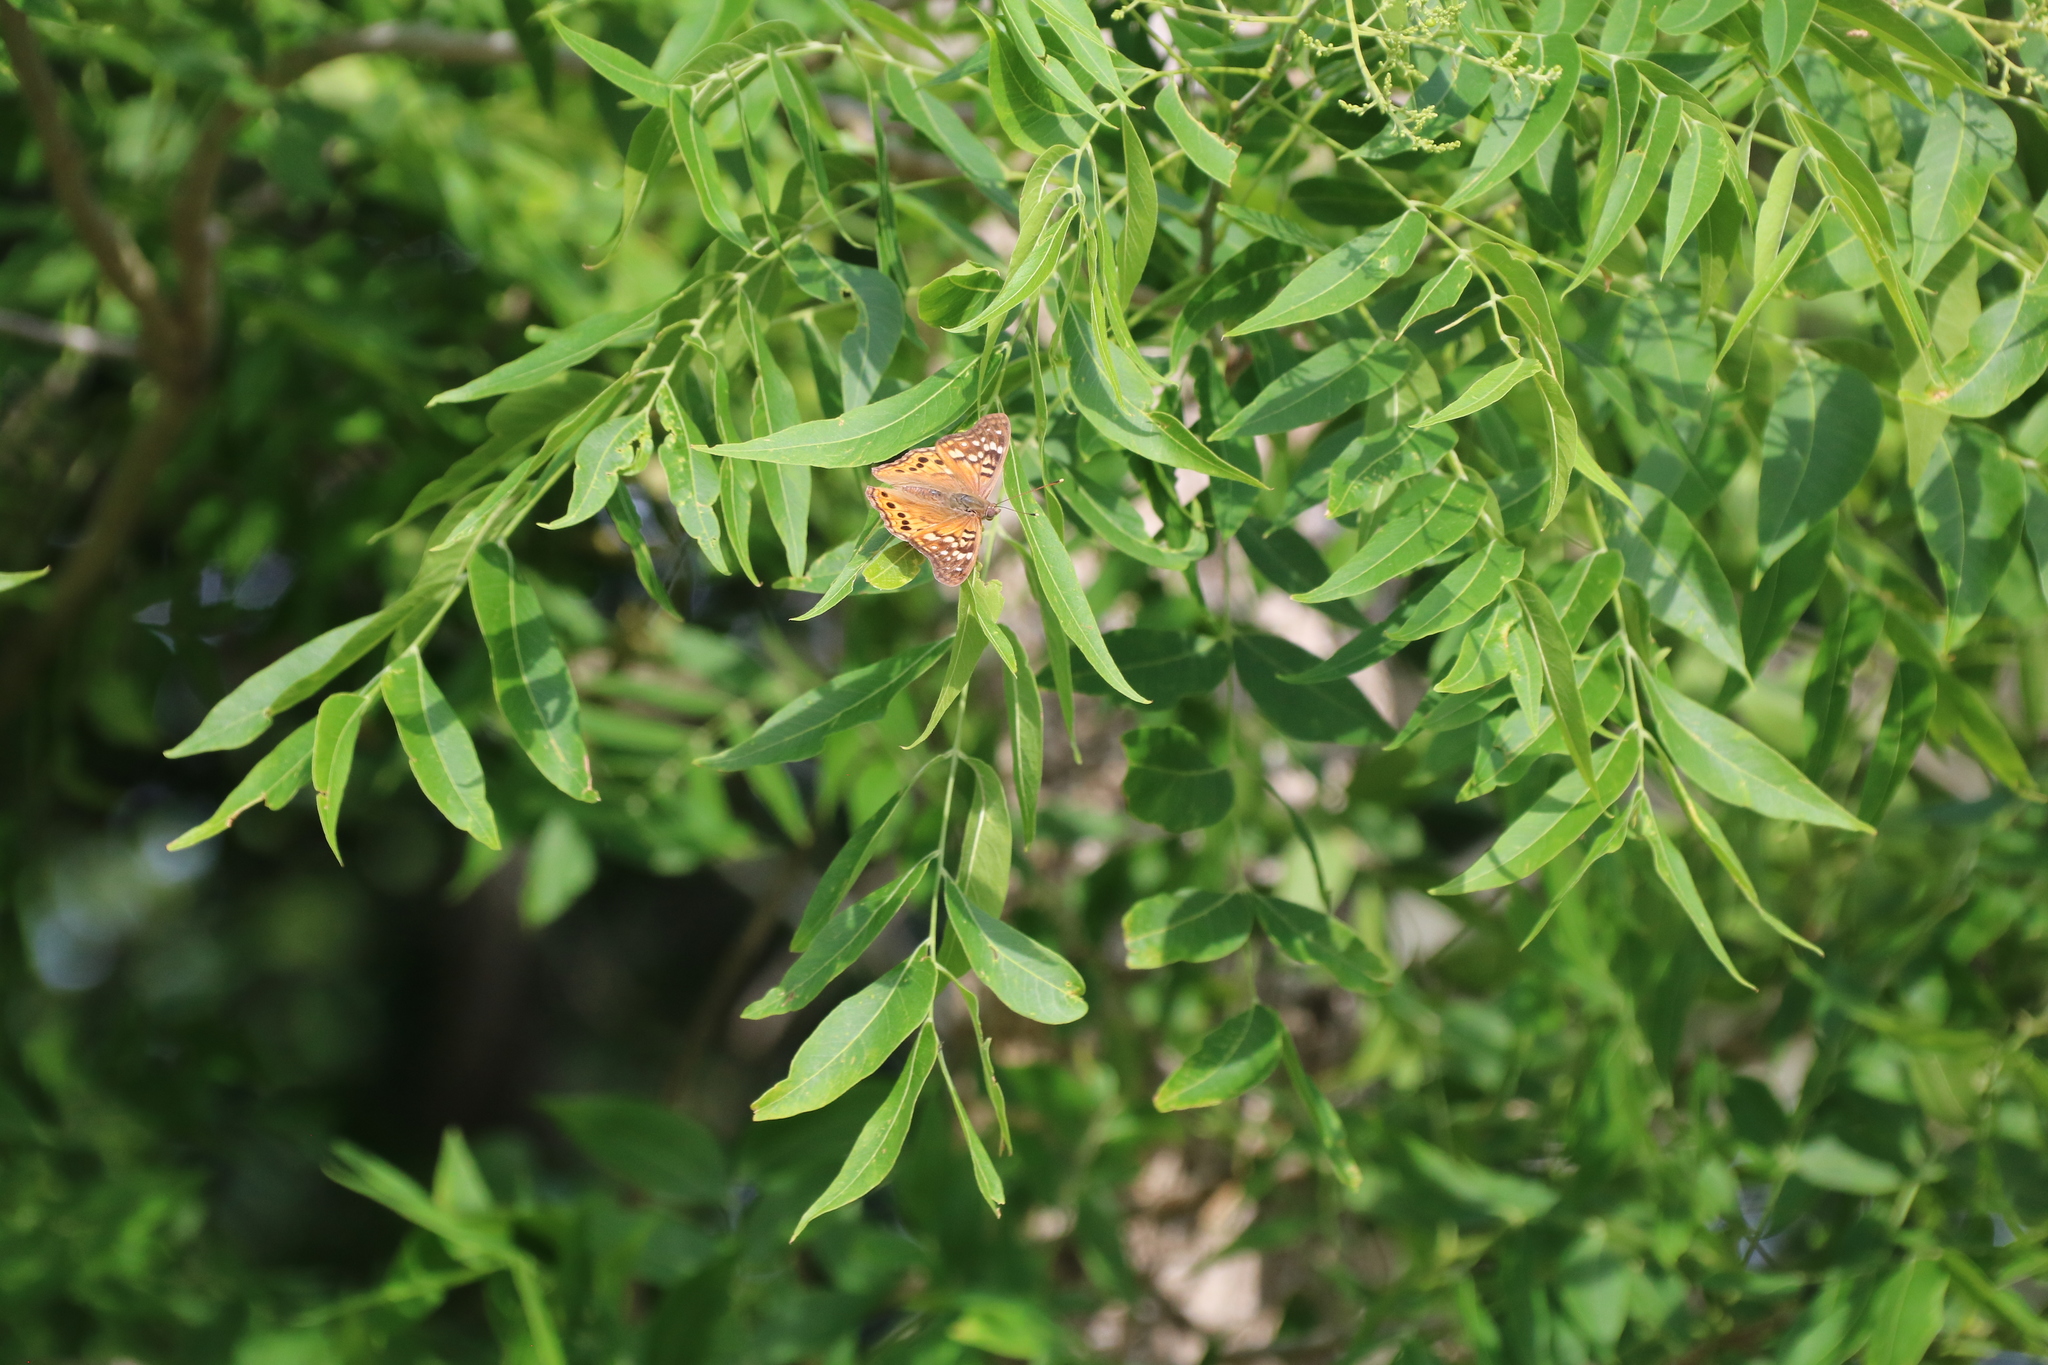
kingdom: Animalia
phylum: Arthropoda
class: Insecta
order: Lepidoptera
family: Nymphalidae
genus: Asterocampa
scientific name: Asterocampa clyton
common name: Tawny emperor
